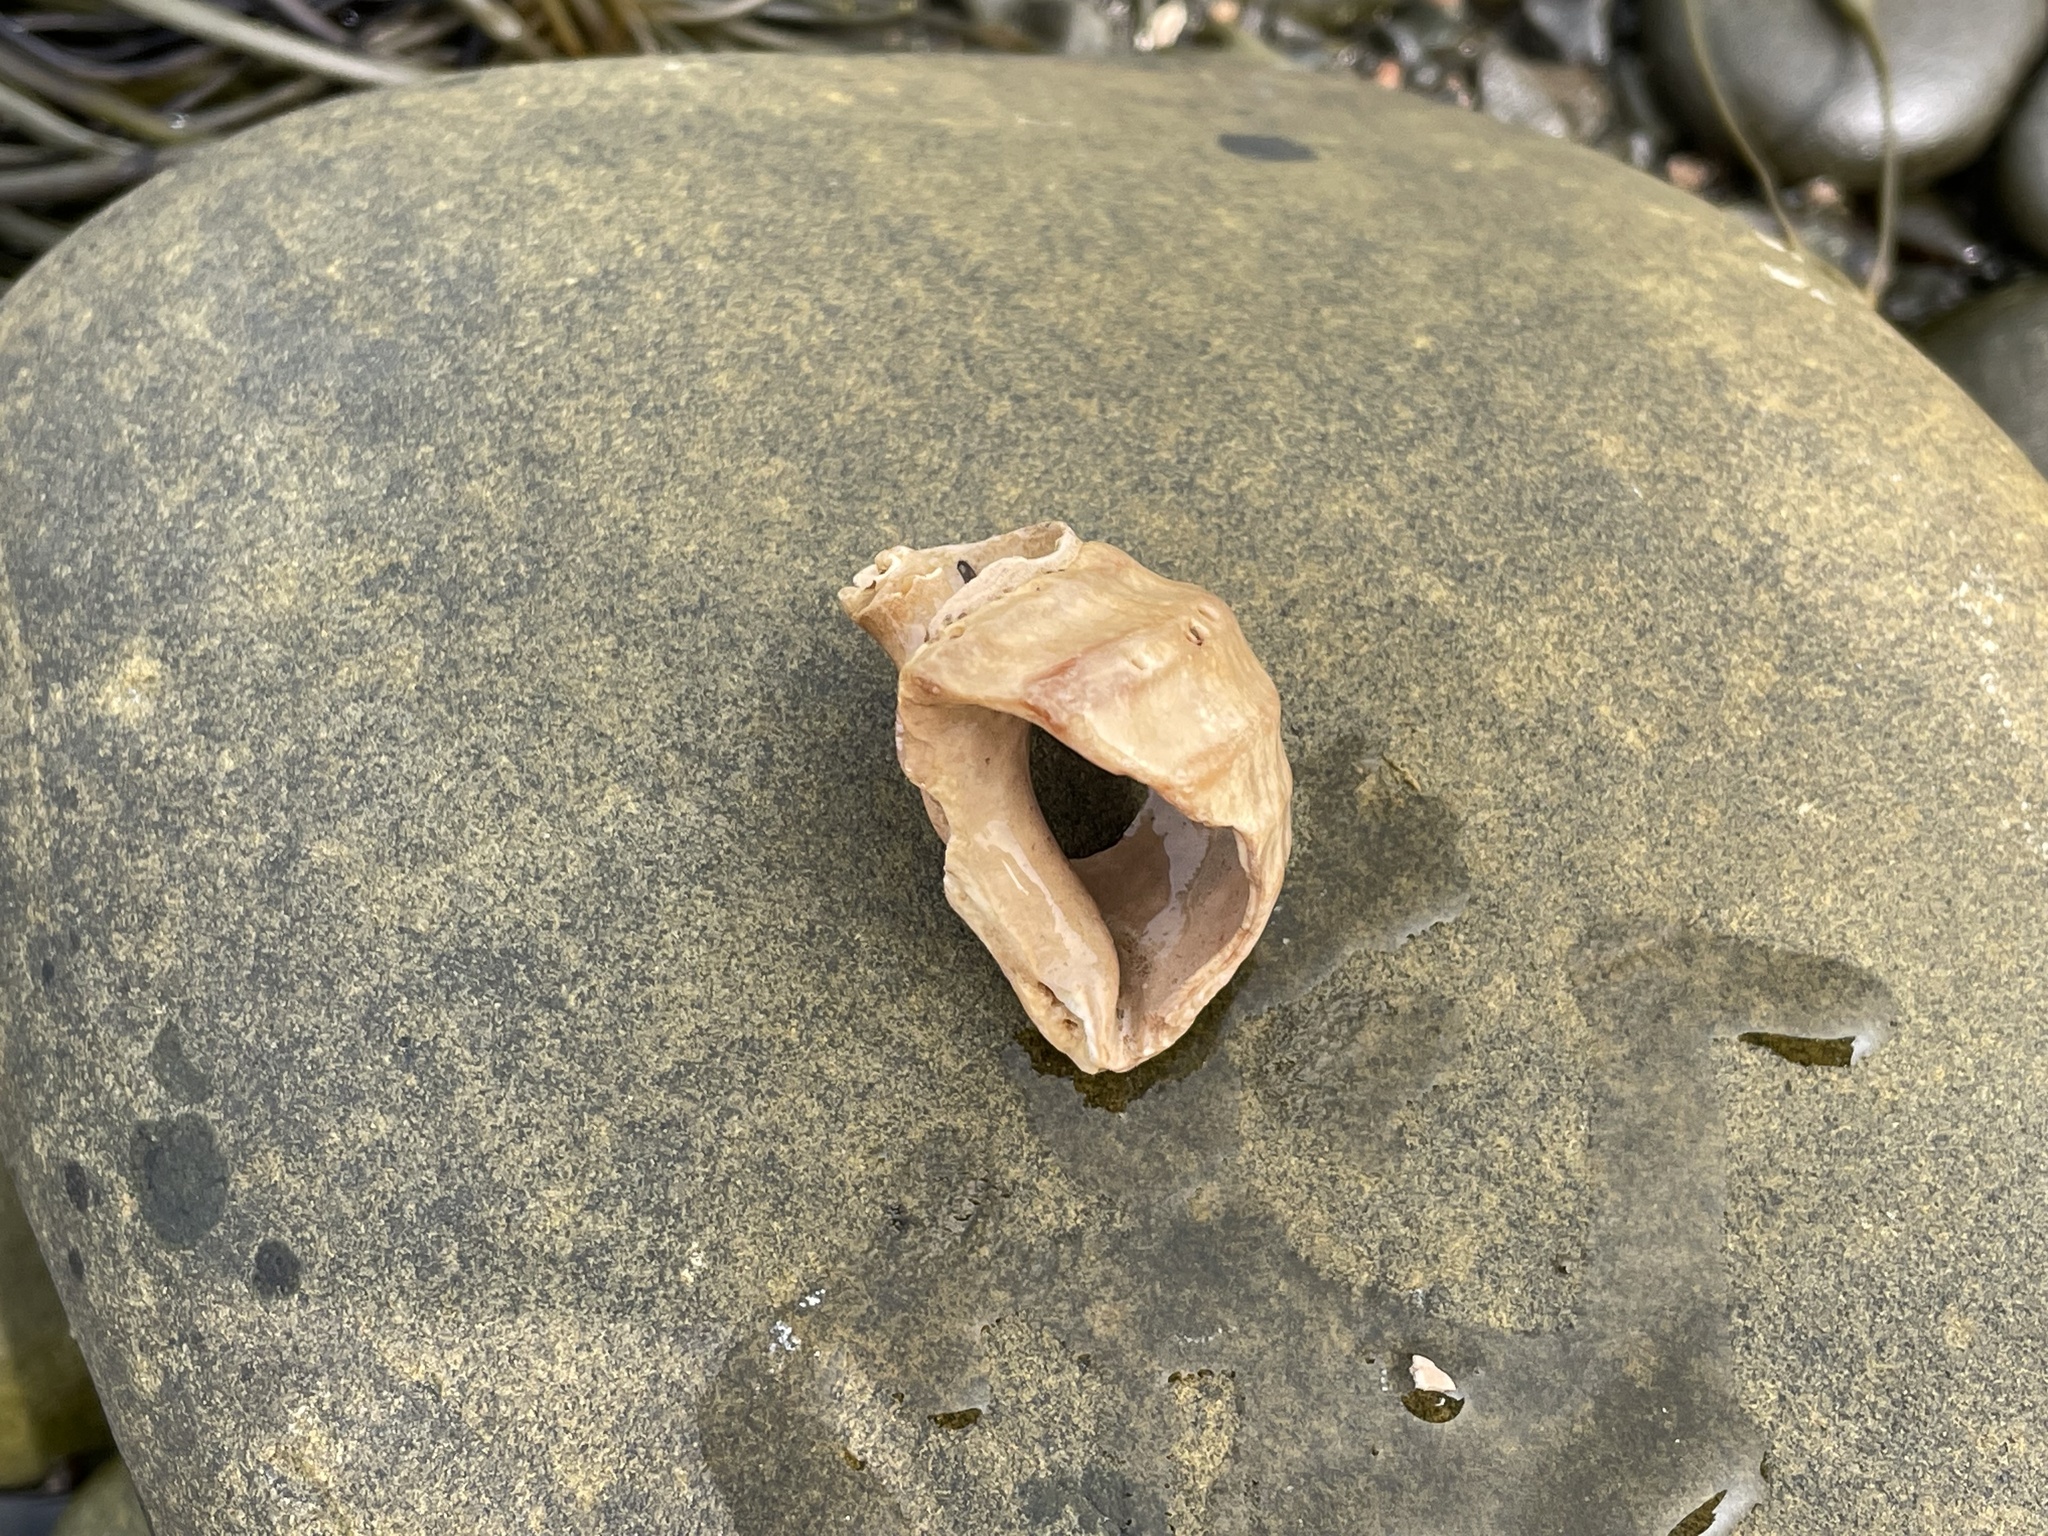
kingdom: Animalia
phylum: Mollusca
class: Gastropoda
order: Neogastropoda
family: Buccinidae
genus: Neptunea
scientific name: Neptunea decemcostata
